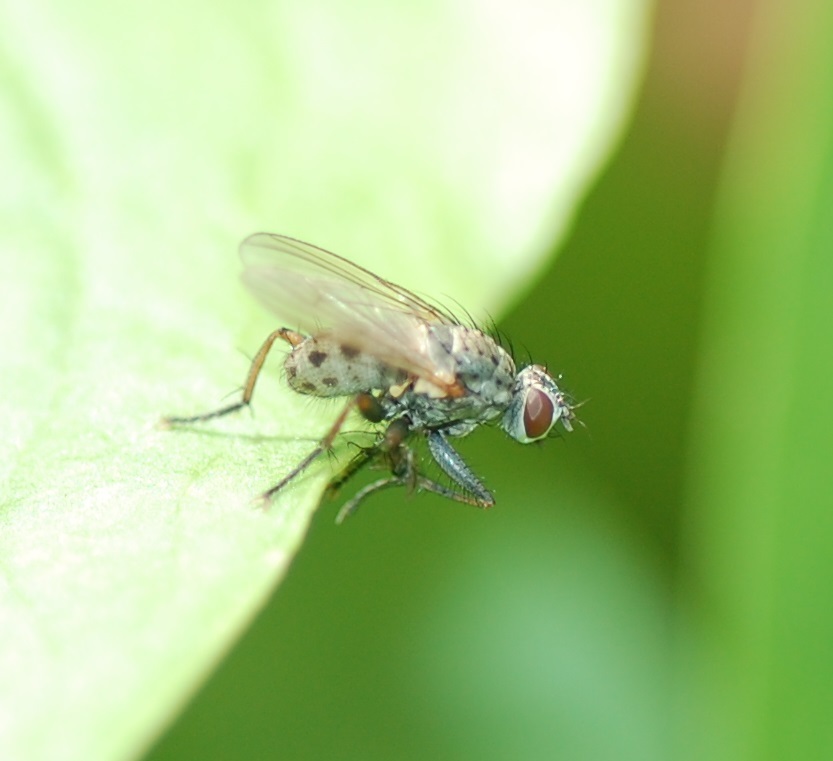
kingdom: Animalia
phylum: Arthropoda
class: Insecta
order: Diptera
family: Muscidae
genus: Coenosia
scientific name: Coenosia tigrina
